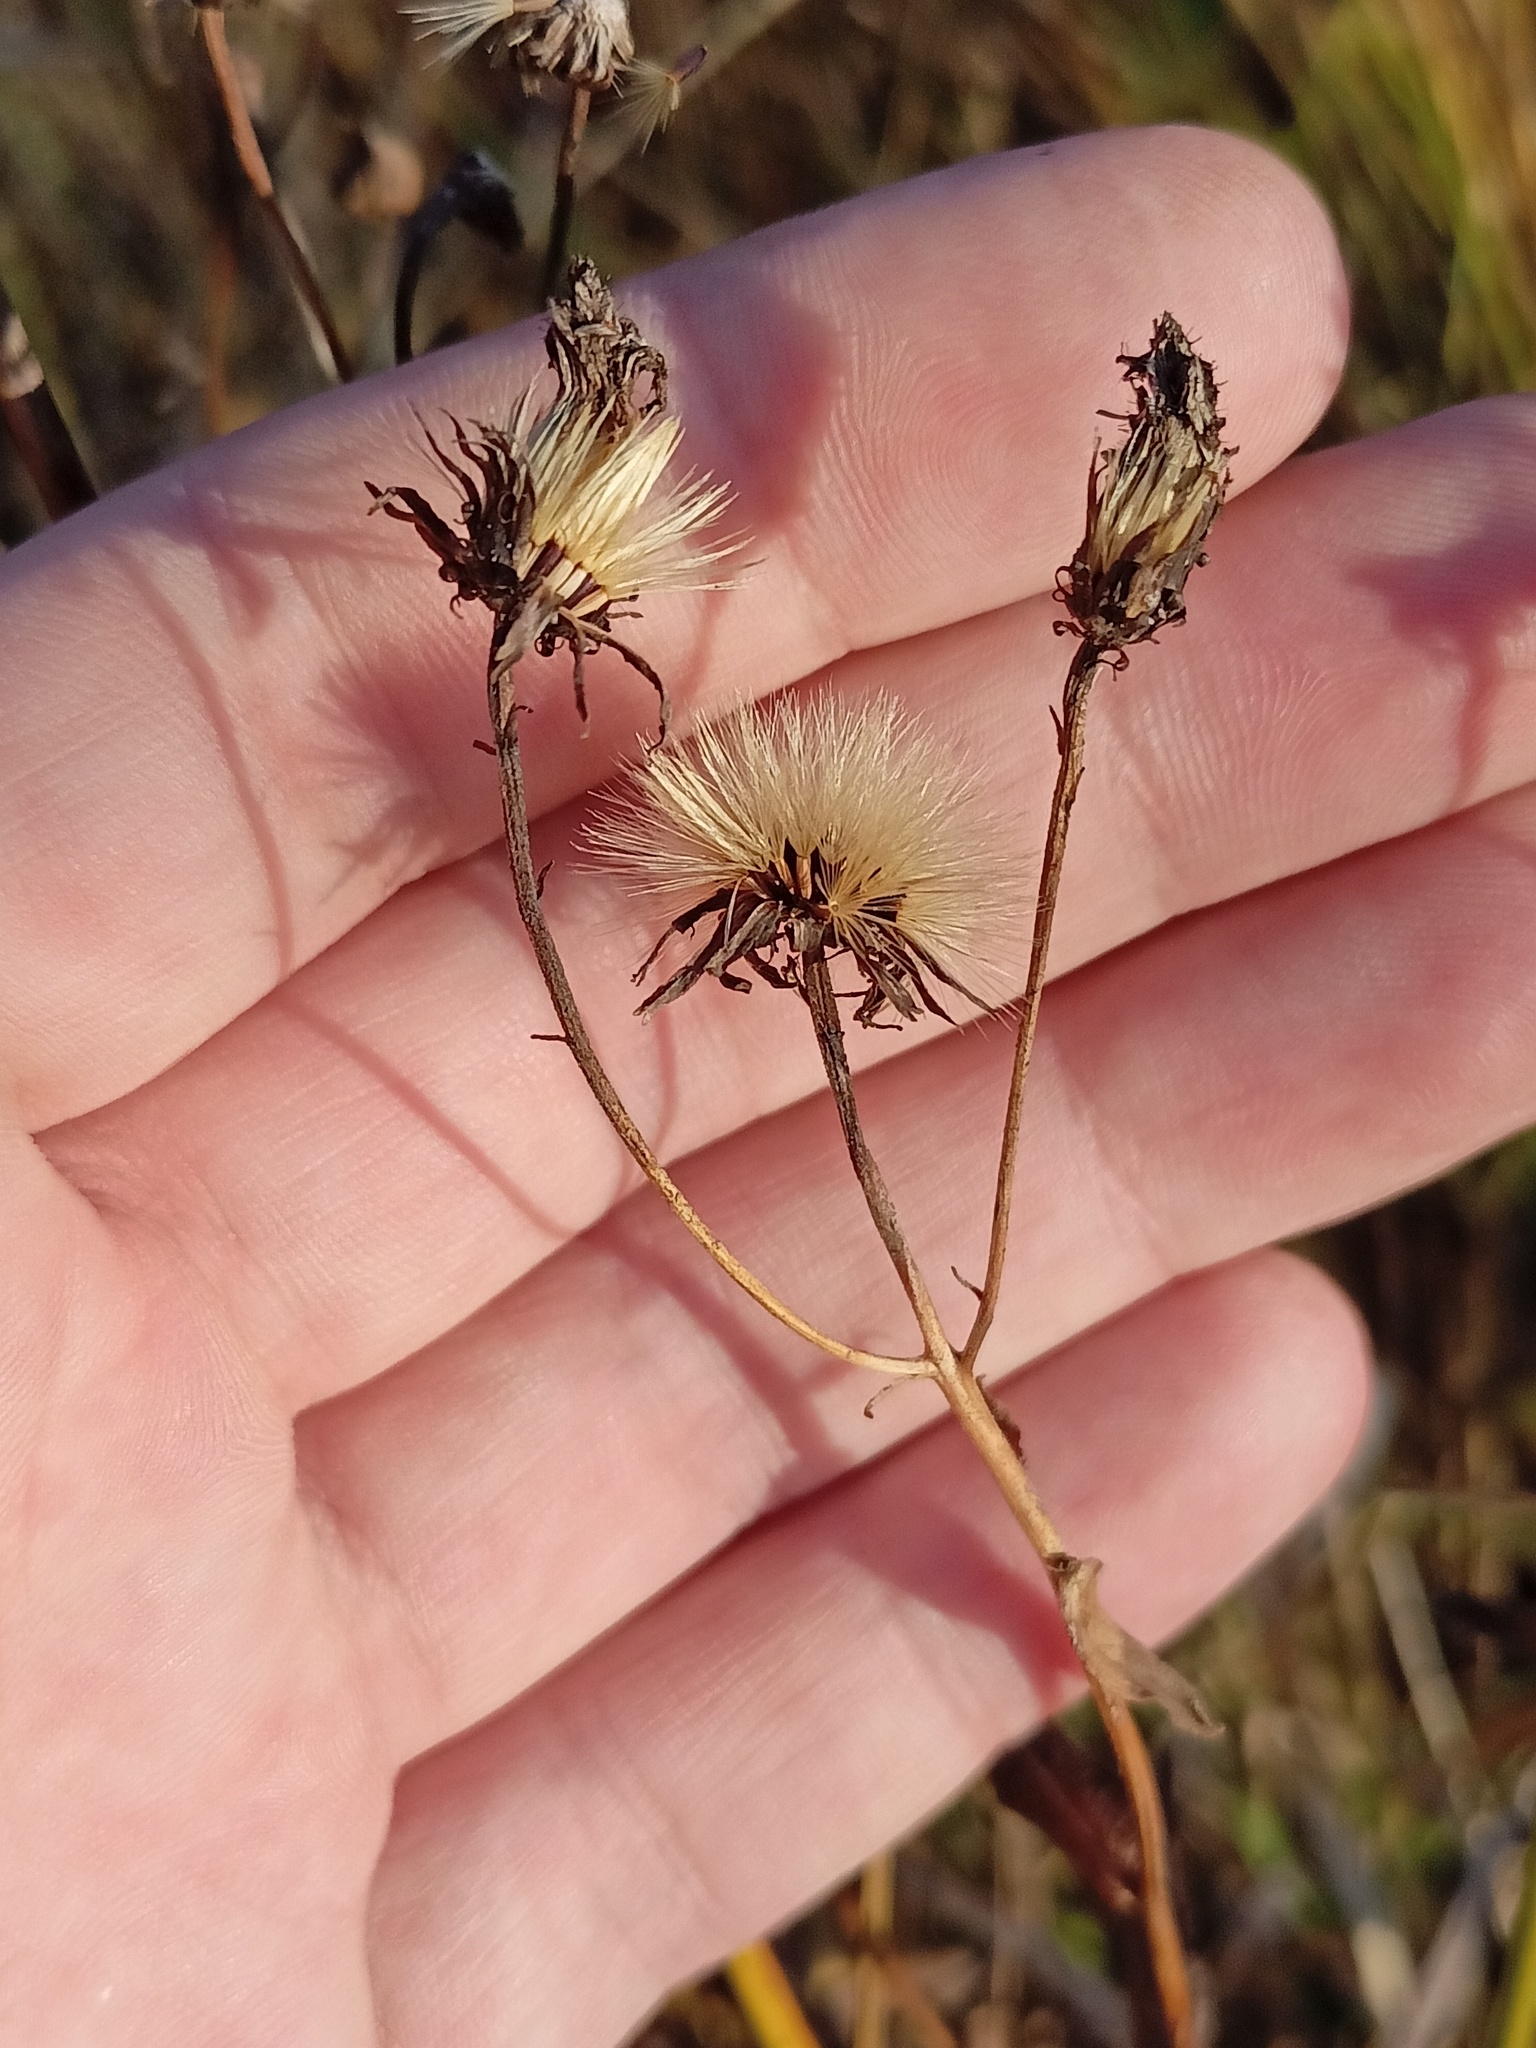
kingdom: Plantae
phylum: Tracheophyta
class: Magnoliopsida
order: Asterales
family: Asteraceae
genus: Hieracium
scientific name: Hieracium umbellatum
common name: Northern hawkweed
